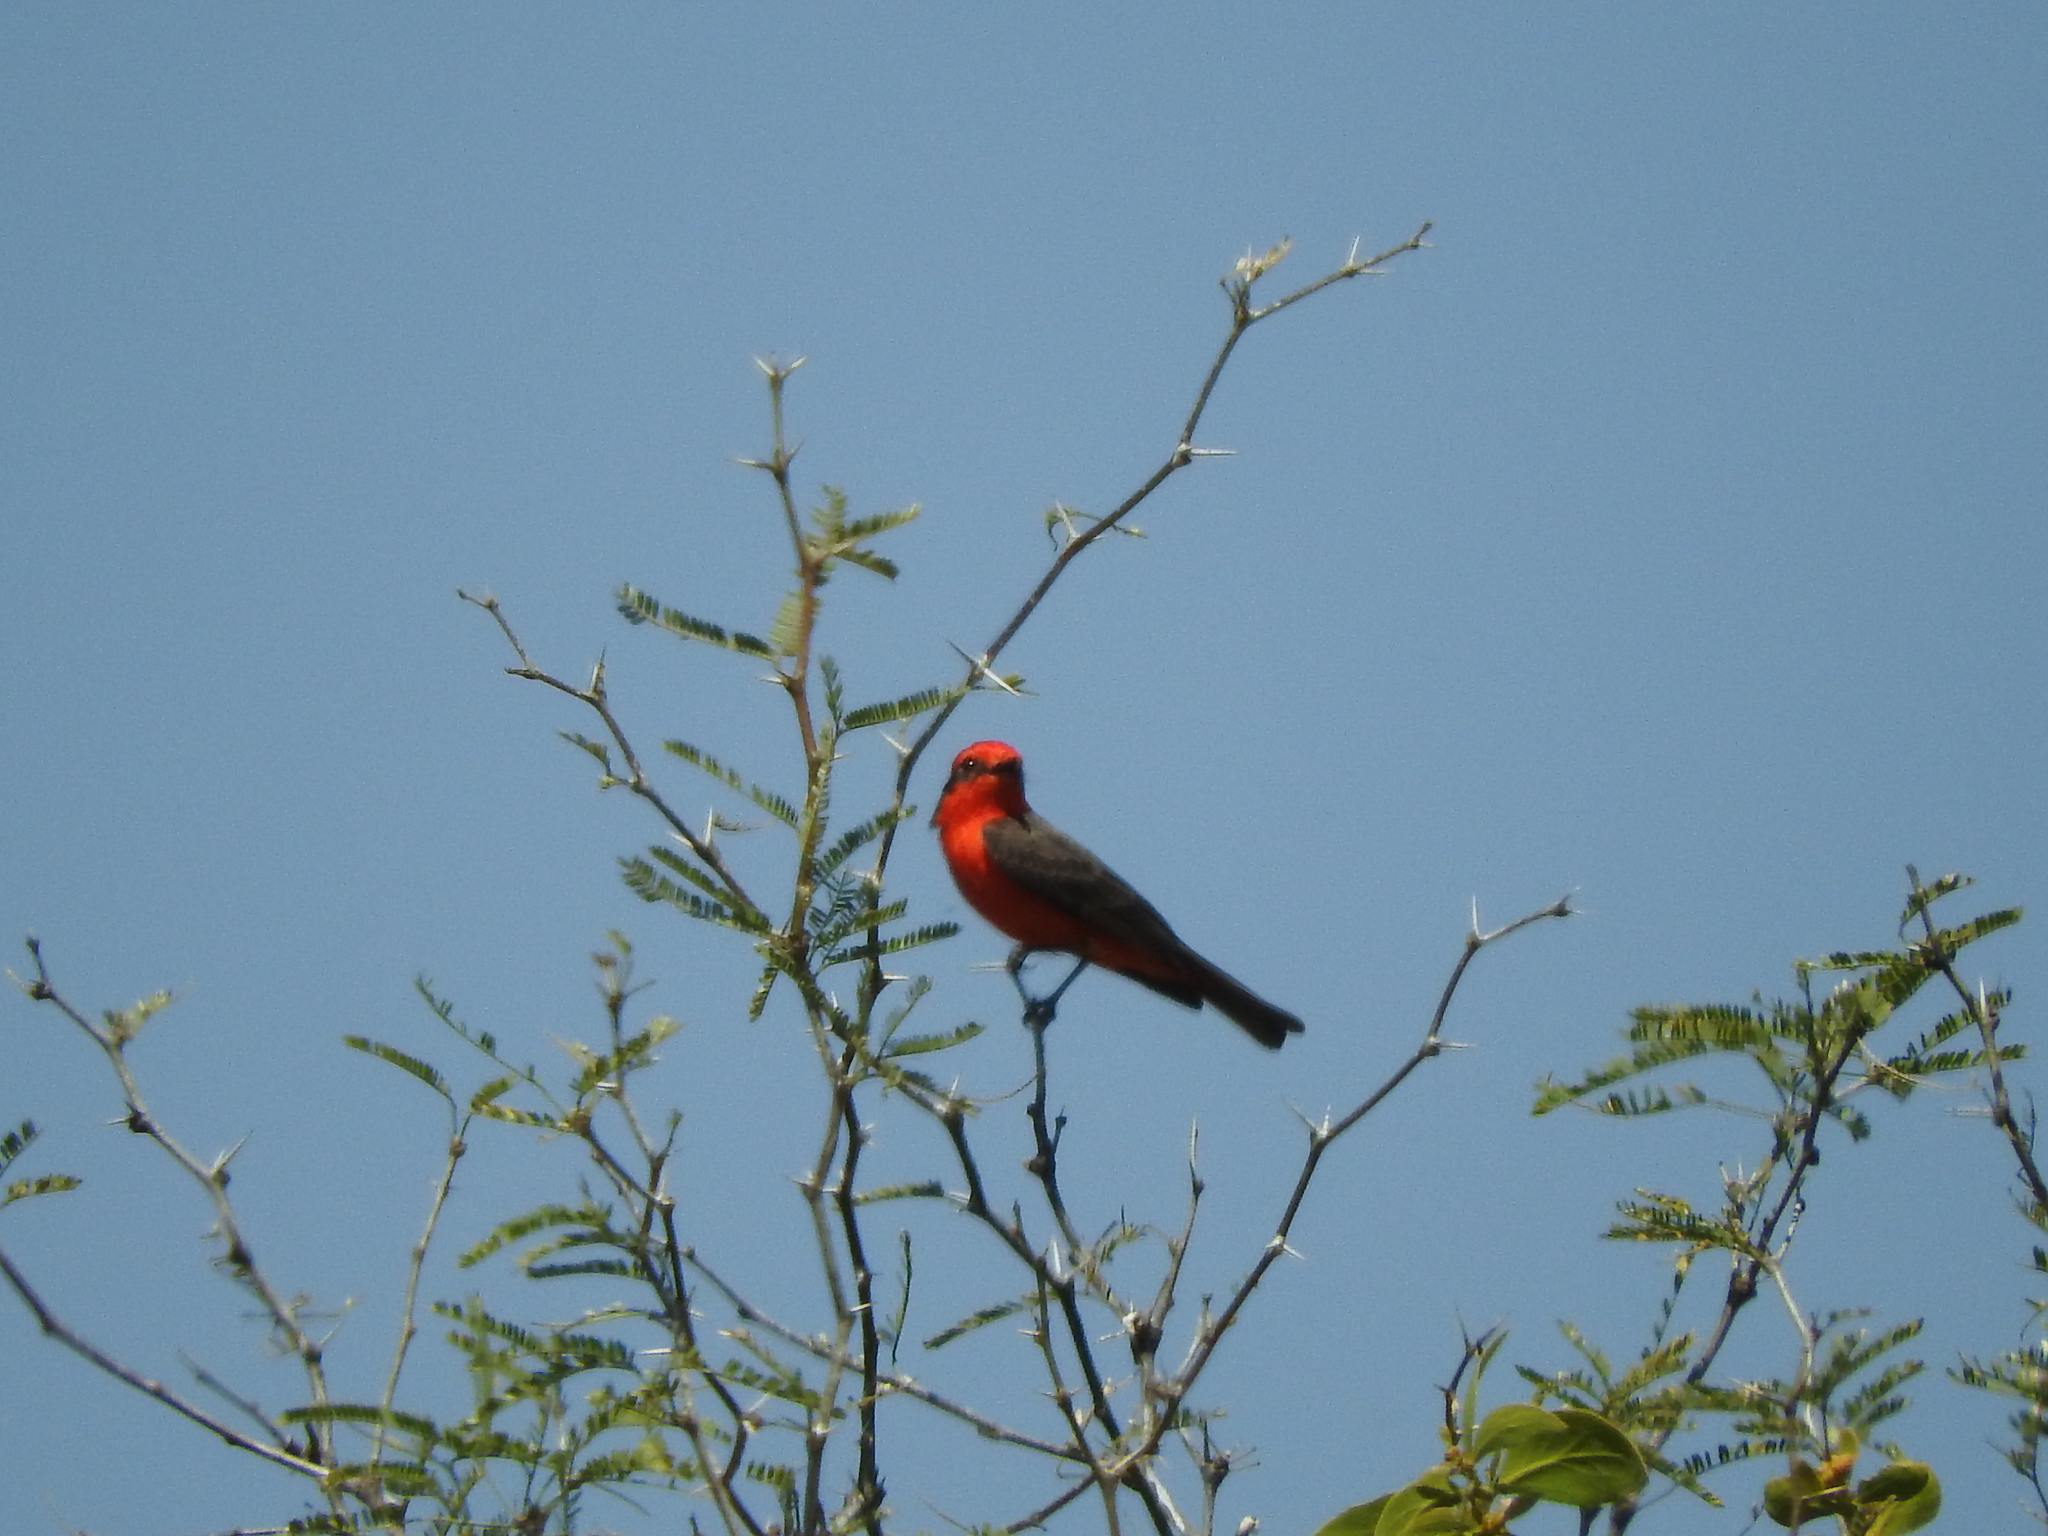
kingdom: Animalia
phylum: Chordata
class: Aves
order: Passeriformes
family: Tyrannidae
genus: Pyrocephalus
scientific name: Pyrocephalus rubinus
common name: Vermilion flycatcher
